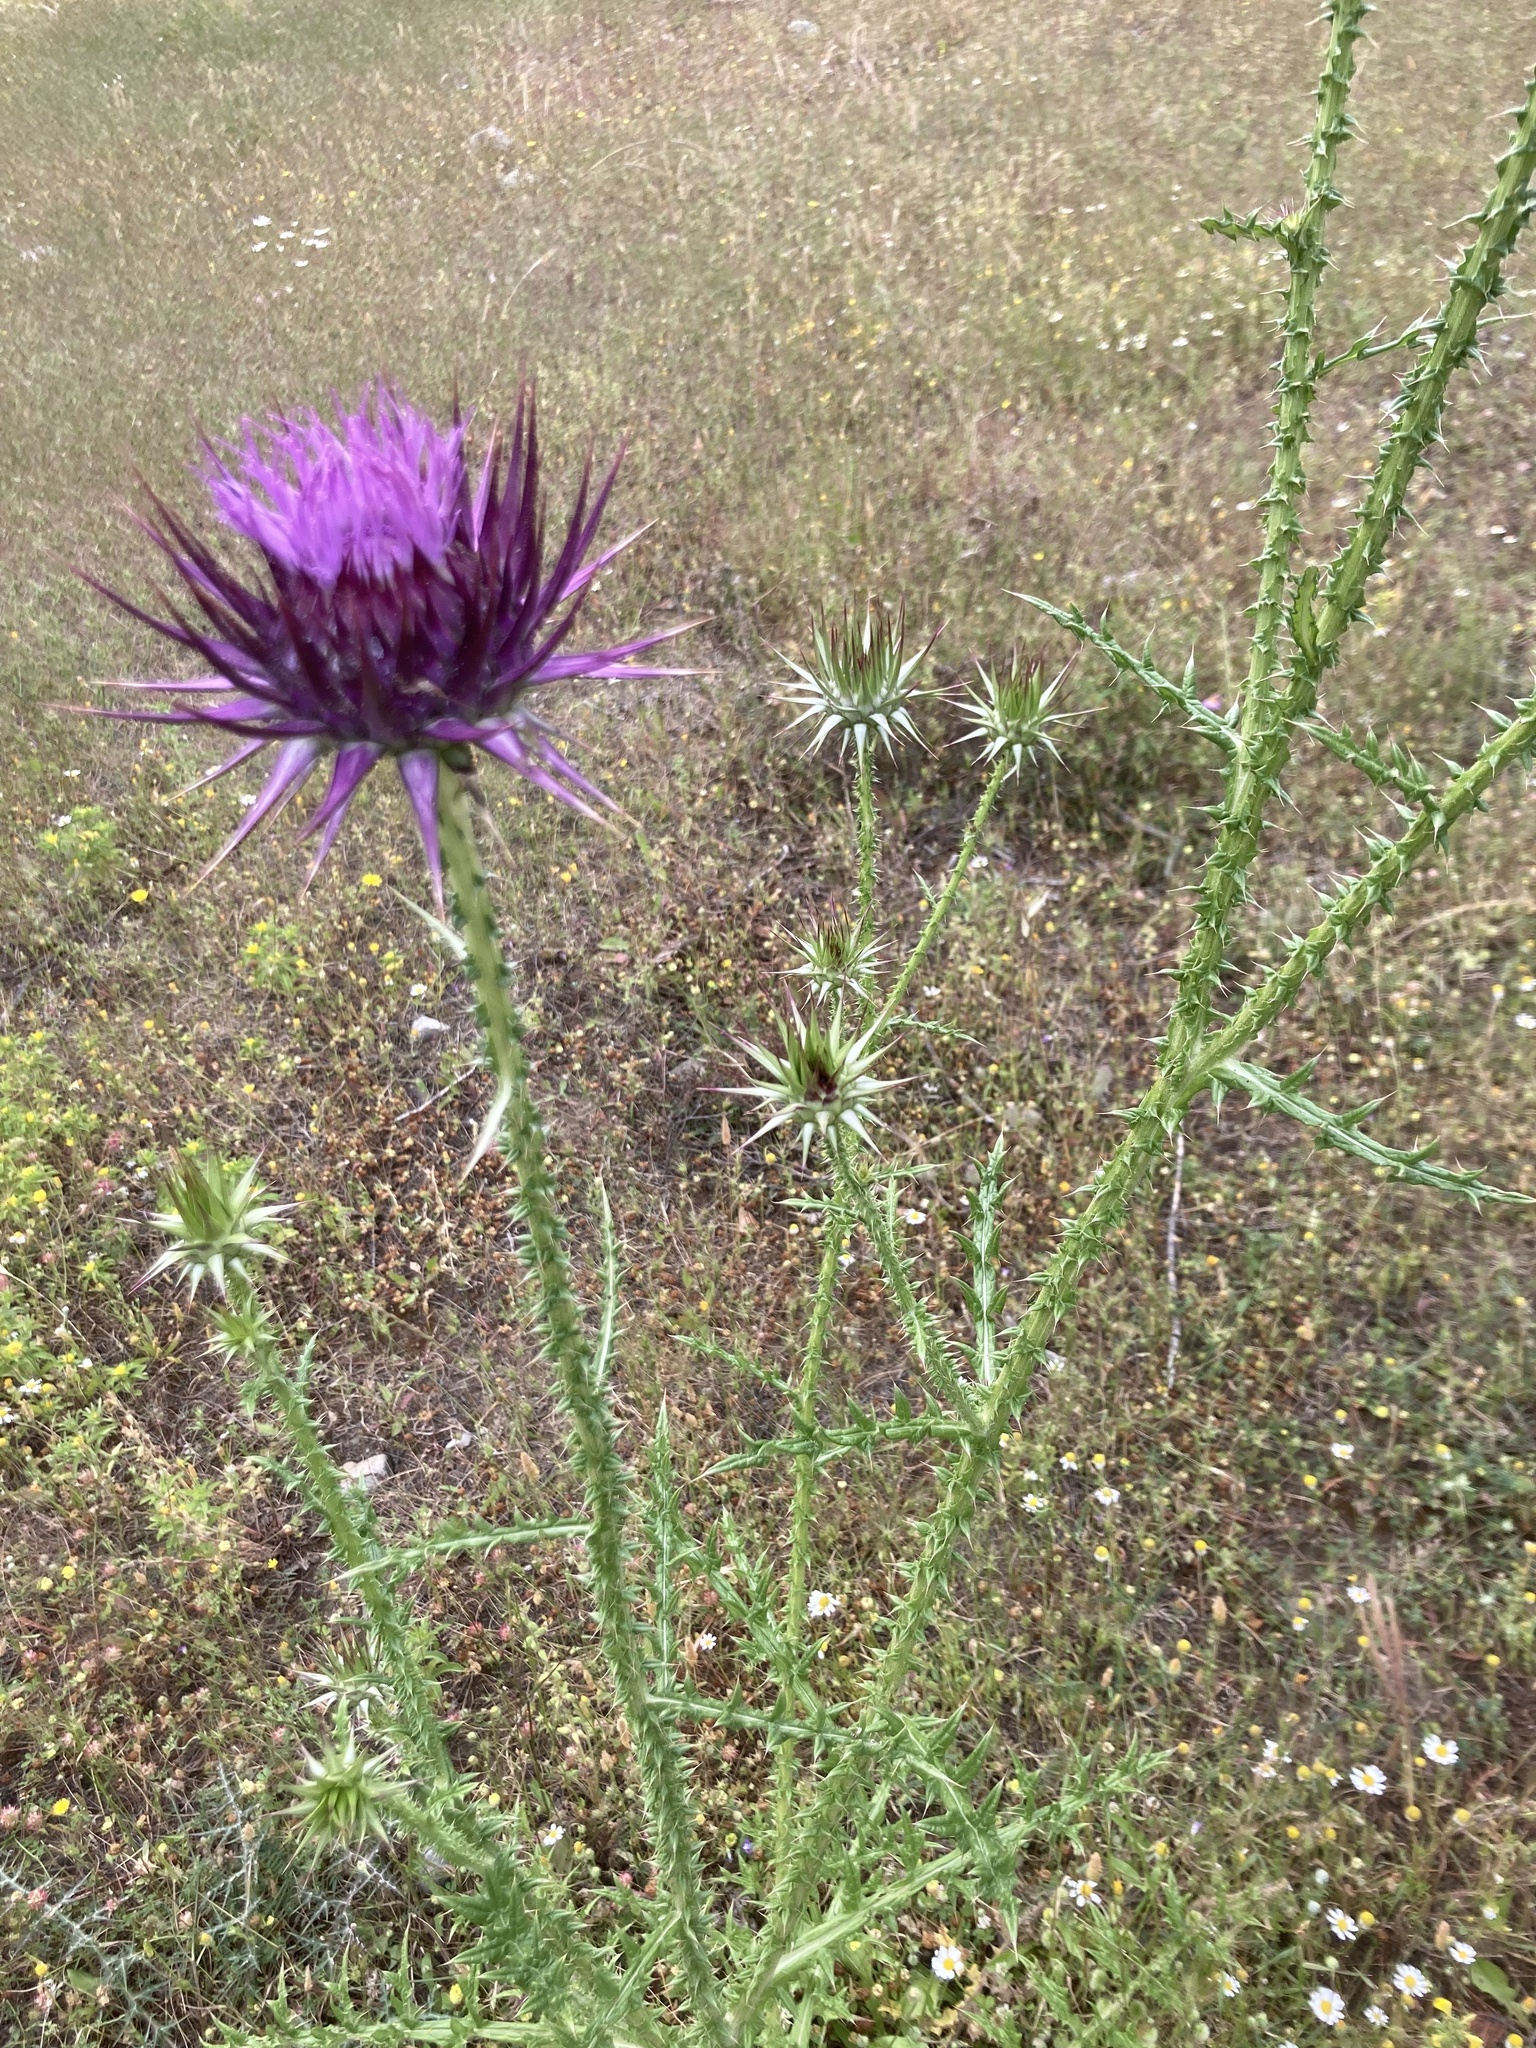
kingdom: Plantae
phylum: Tracheophyta
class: Magnoliopsida
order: Asterales
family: Asteraceae
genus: Onopordum
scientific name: Onopordum boissierianum
